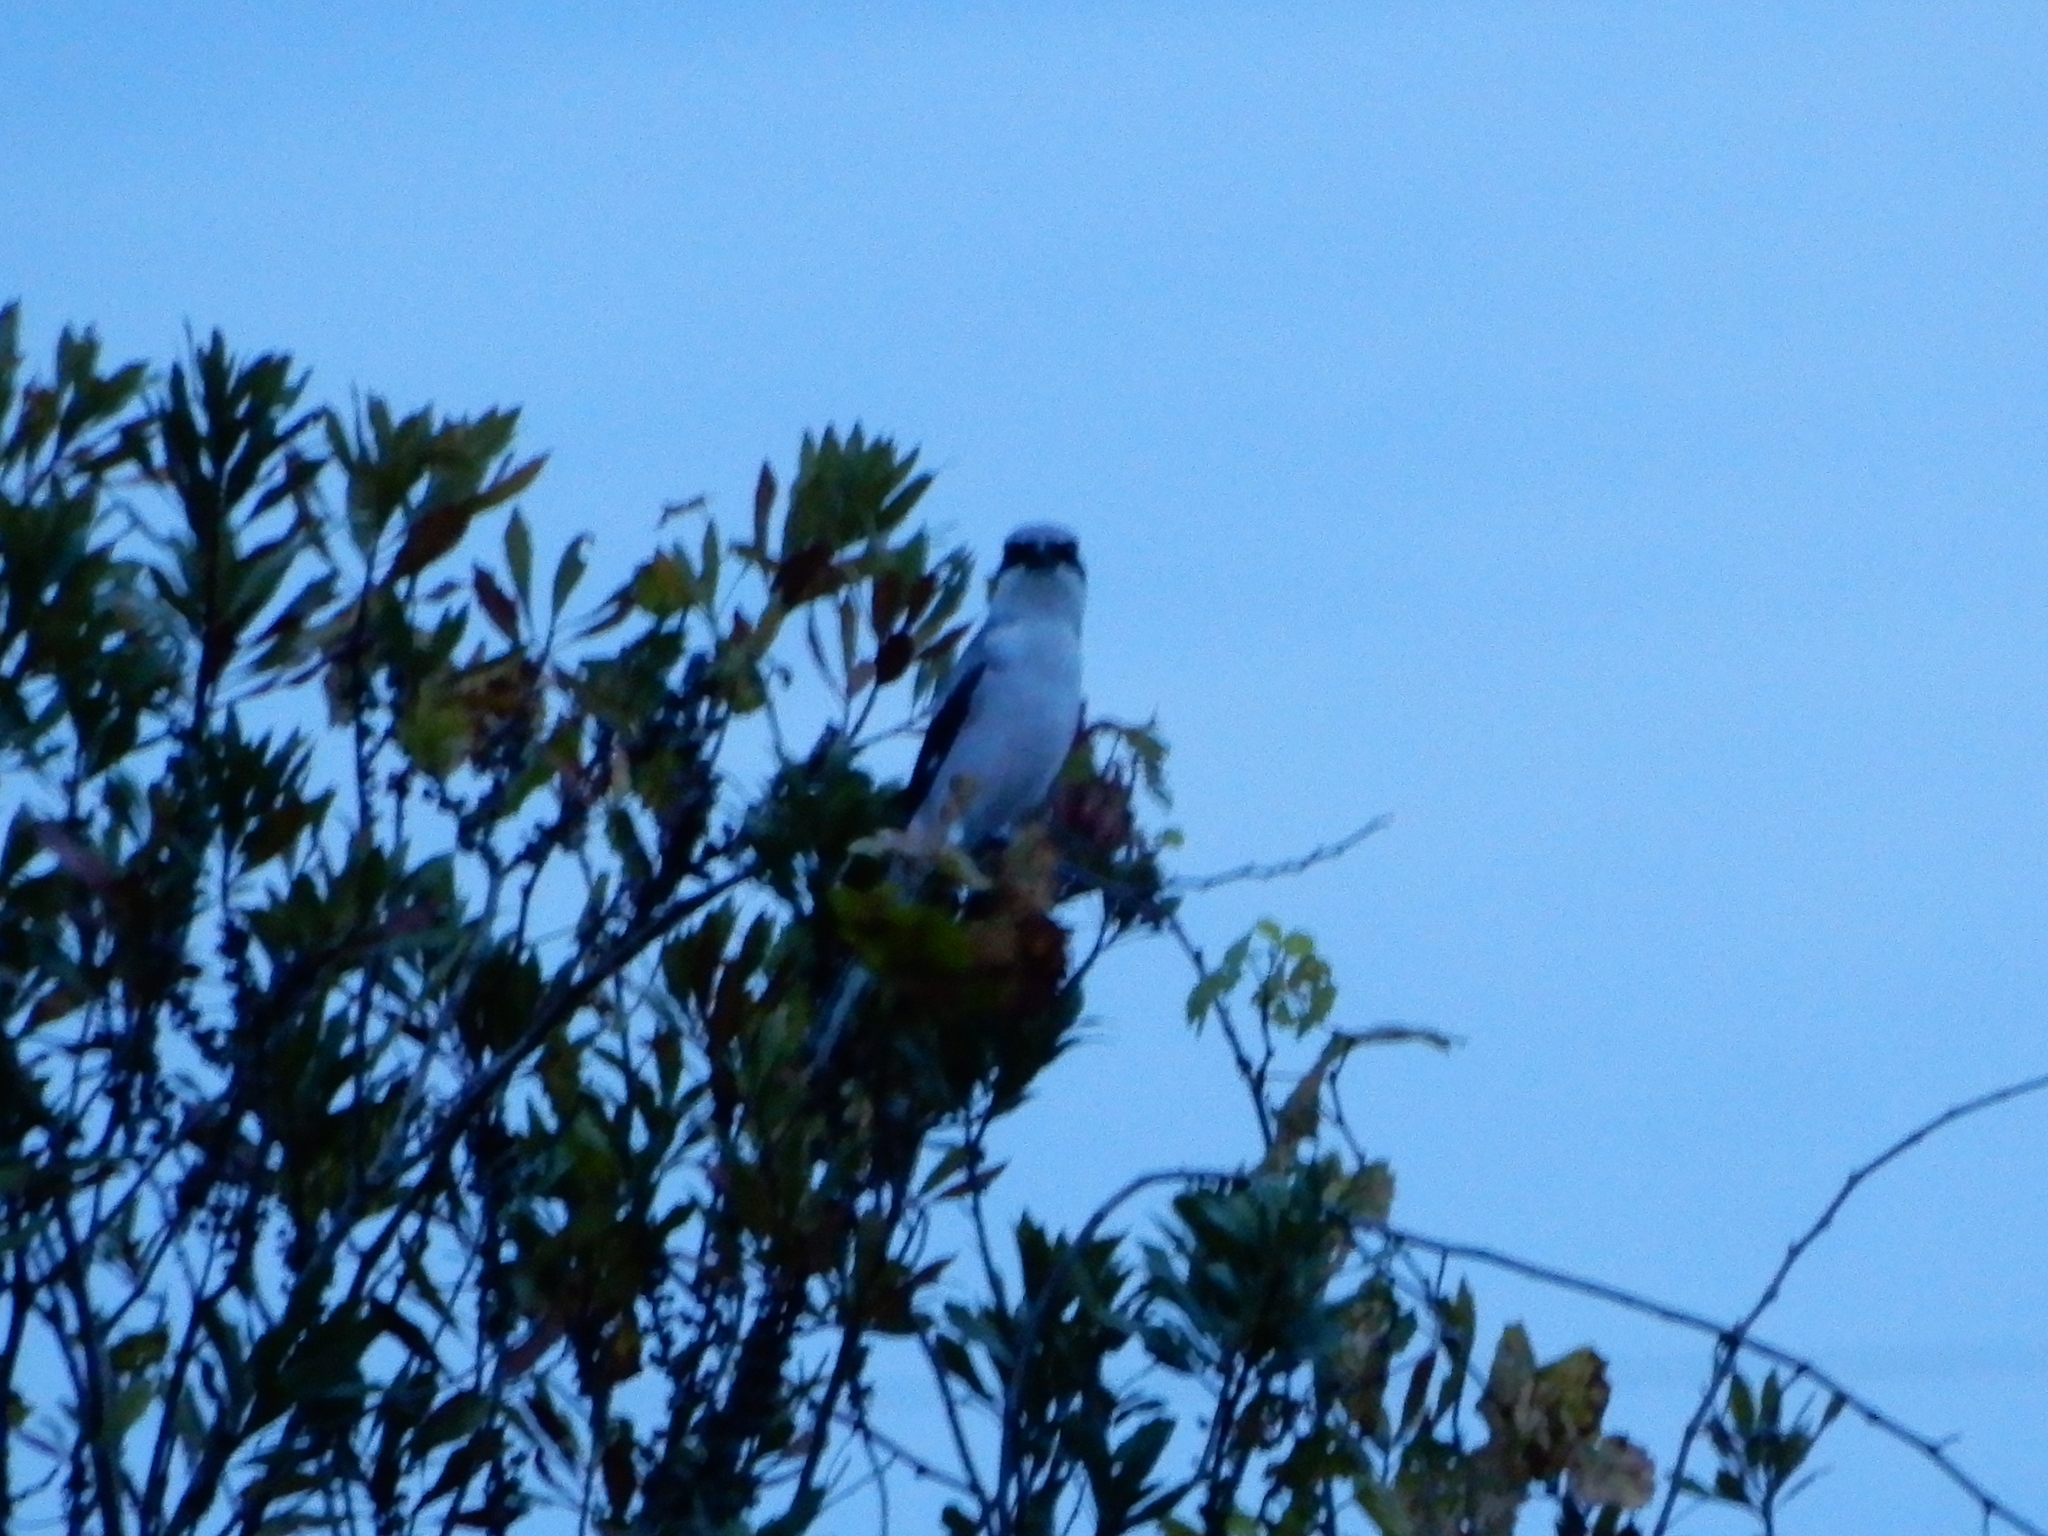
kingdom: Animalia
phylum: Chordata
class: Aves
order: Passeriformes
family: Laniidae
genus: Lanius
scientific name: Lanius ludovicianus
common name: Loggerhead shrike
